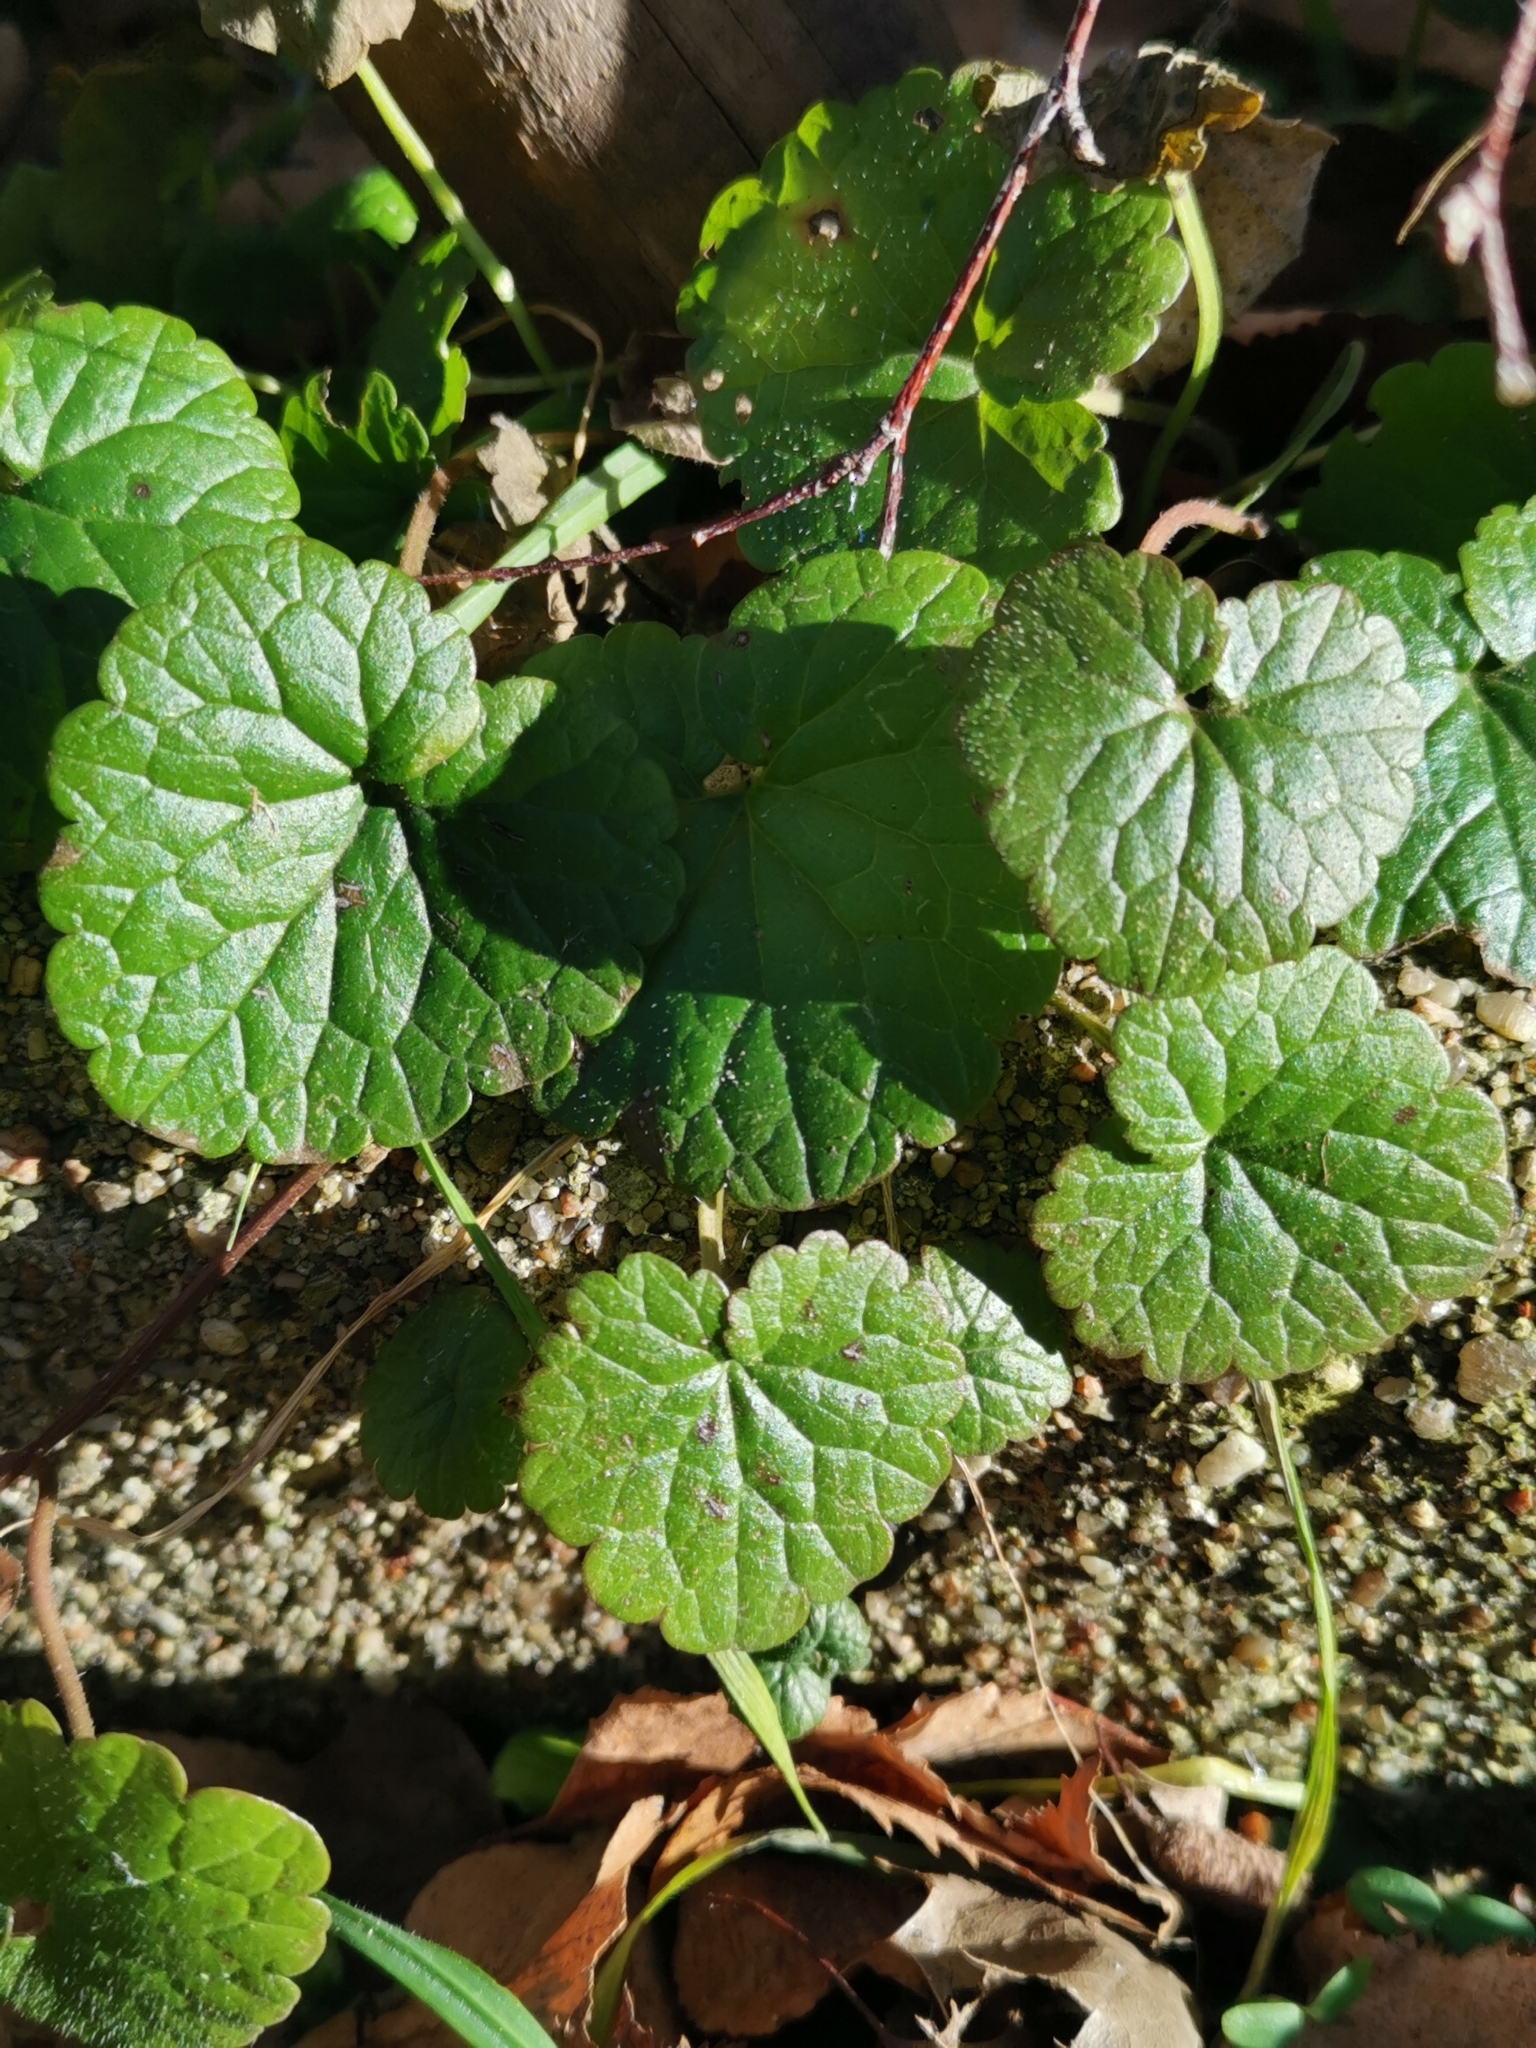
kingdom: Plantae
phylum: Tracheophyta
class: Magnoliopsida
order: Lamiales
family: Lamiaceae
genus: Glechoma
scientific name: Glechoma hederacea
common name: Ground ivy
